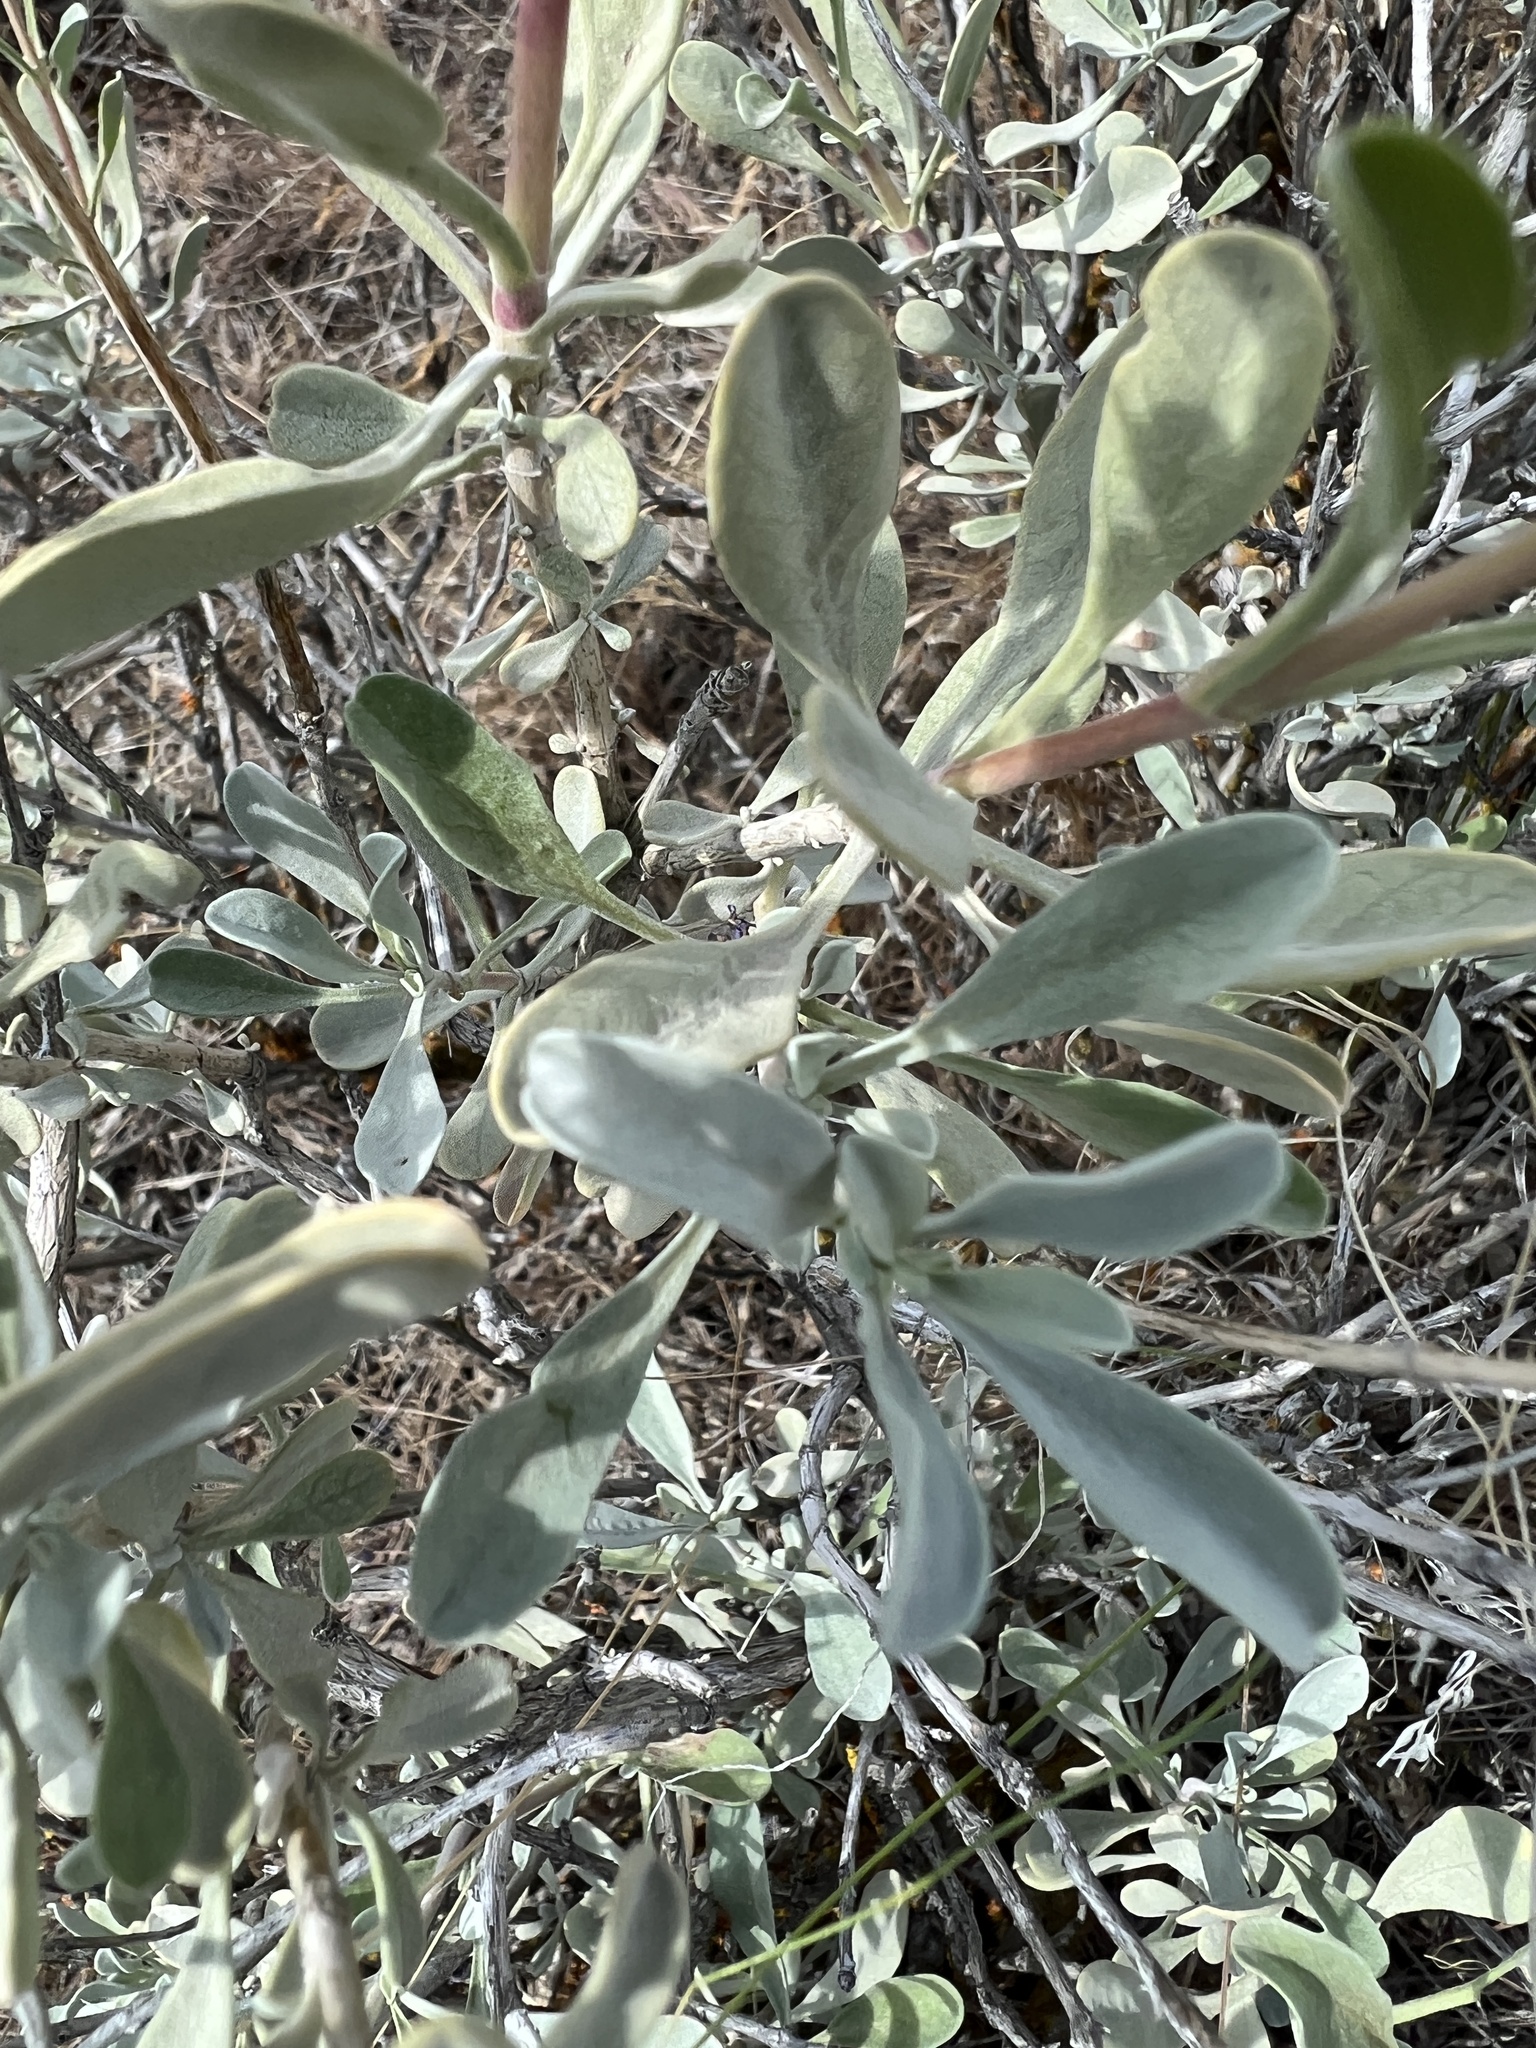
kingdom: Plantae
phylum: Tracheophyta
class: Magnoliopsida
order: Lamiales
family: Lamiaceae
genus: Salvia
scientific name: Salvia dorrii
